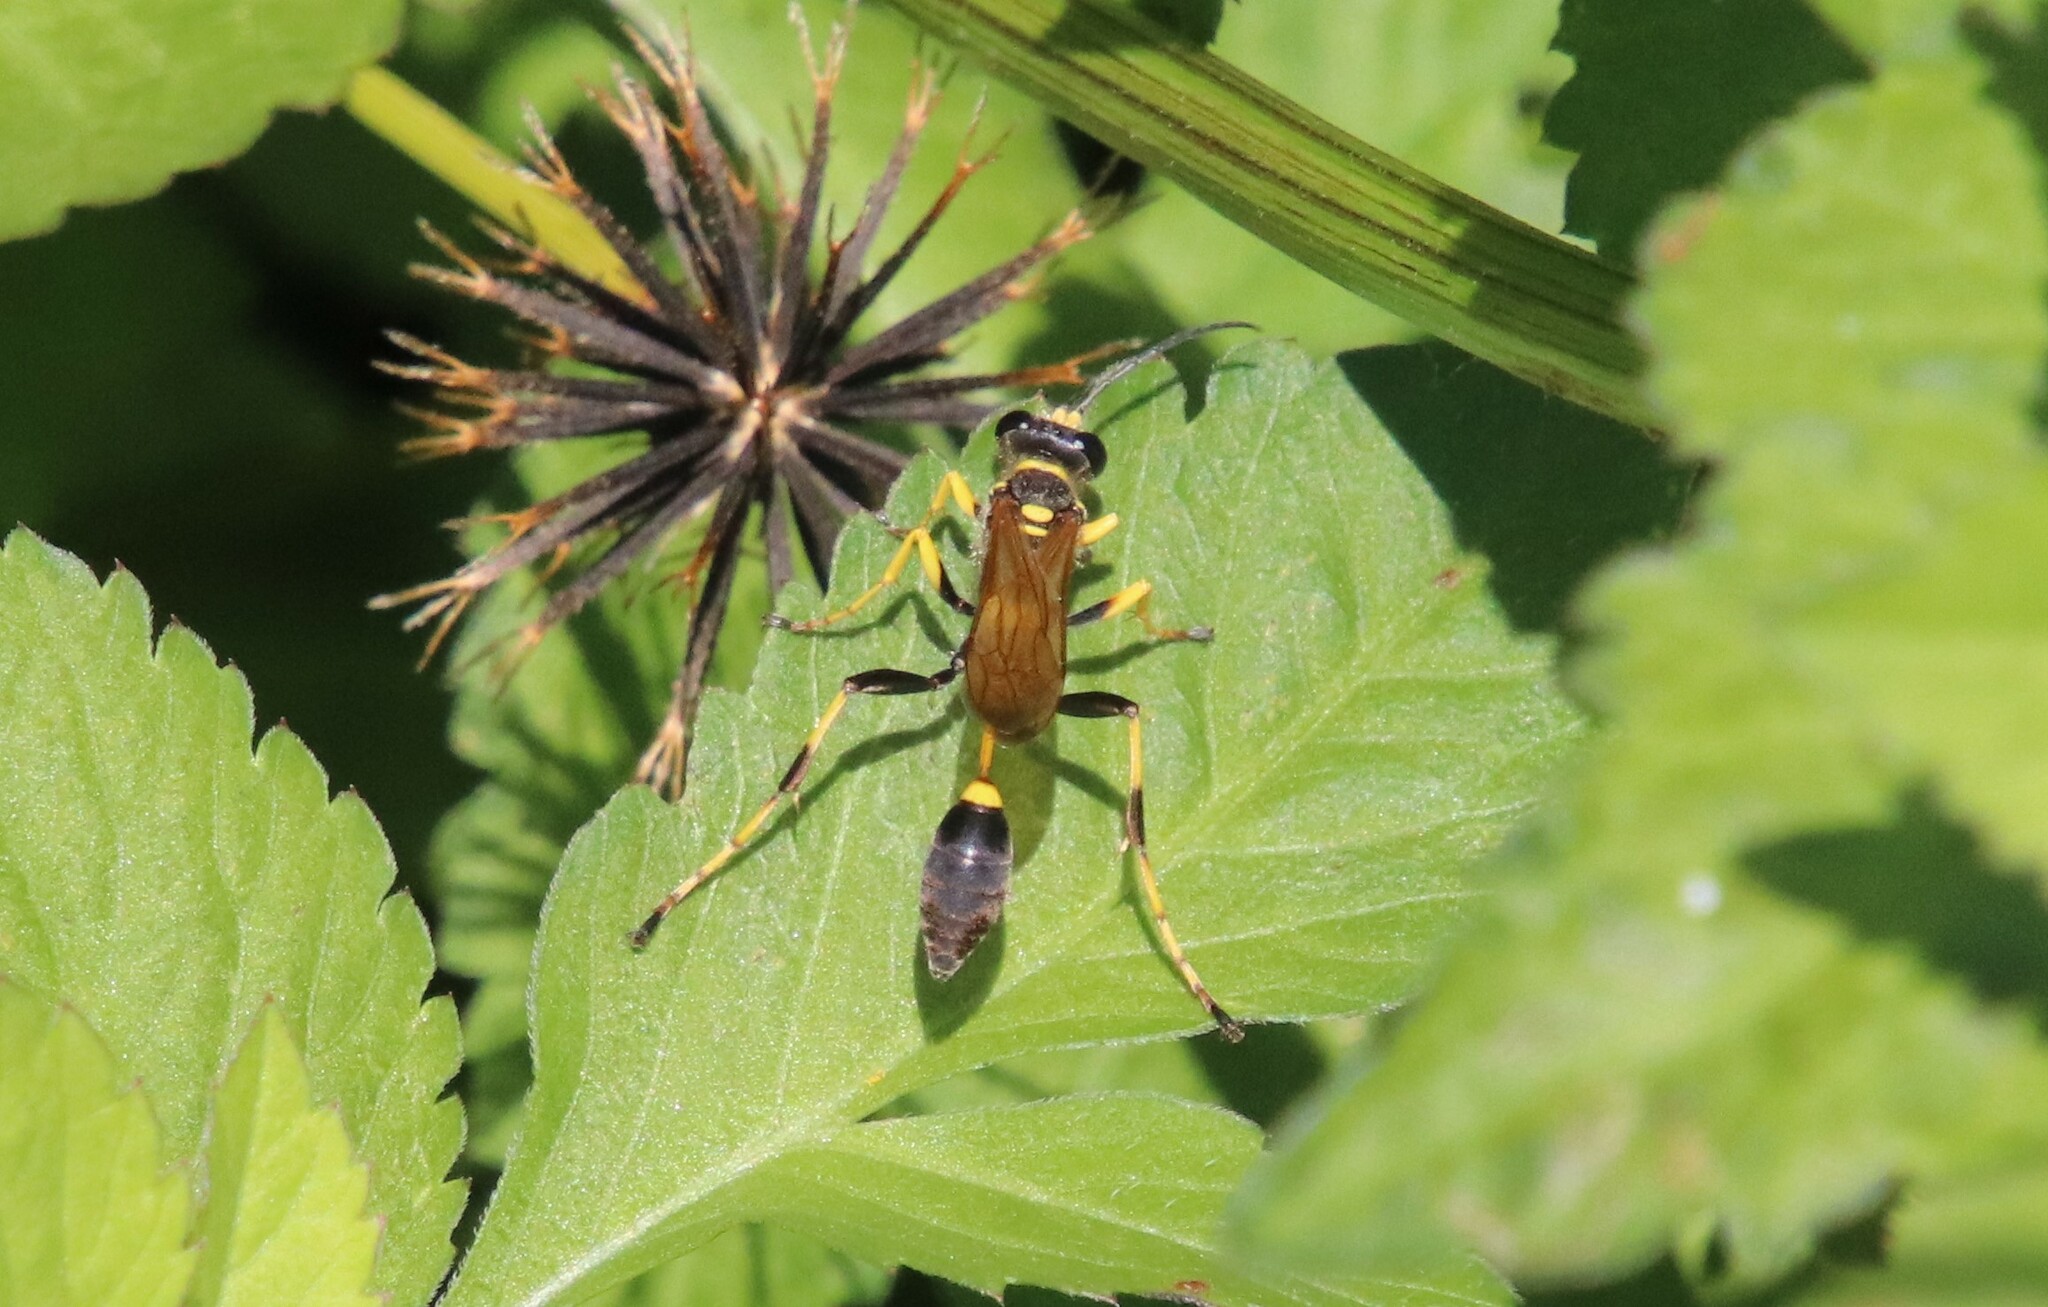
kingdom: Animalia
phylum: Arthropoda
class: Insecta
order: Hymenoptera
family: Sphecidae
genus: Sceliphron
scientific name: Sceliphron caementarium
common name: Mud dauber
